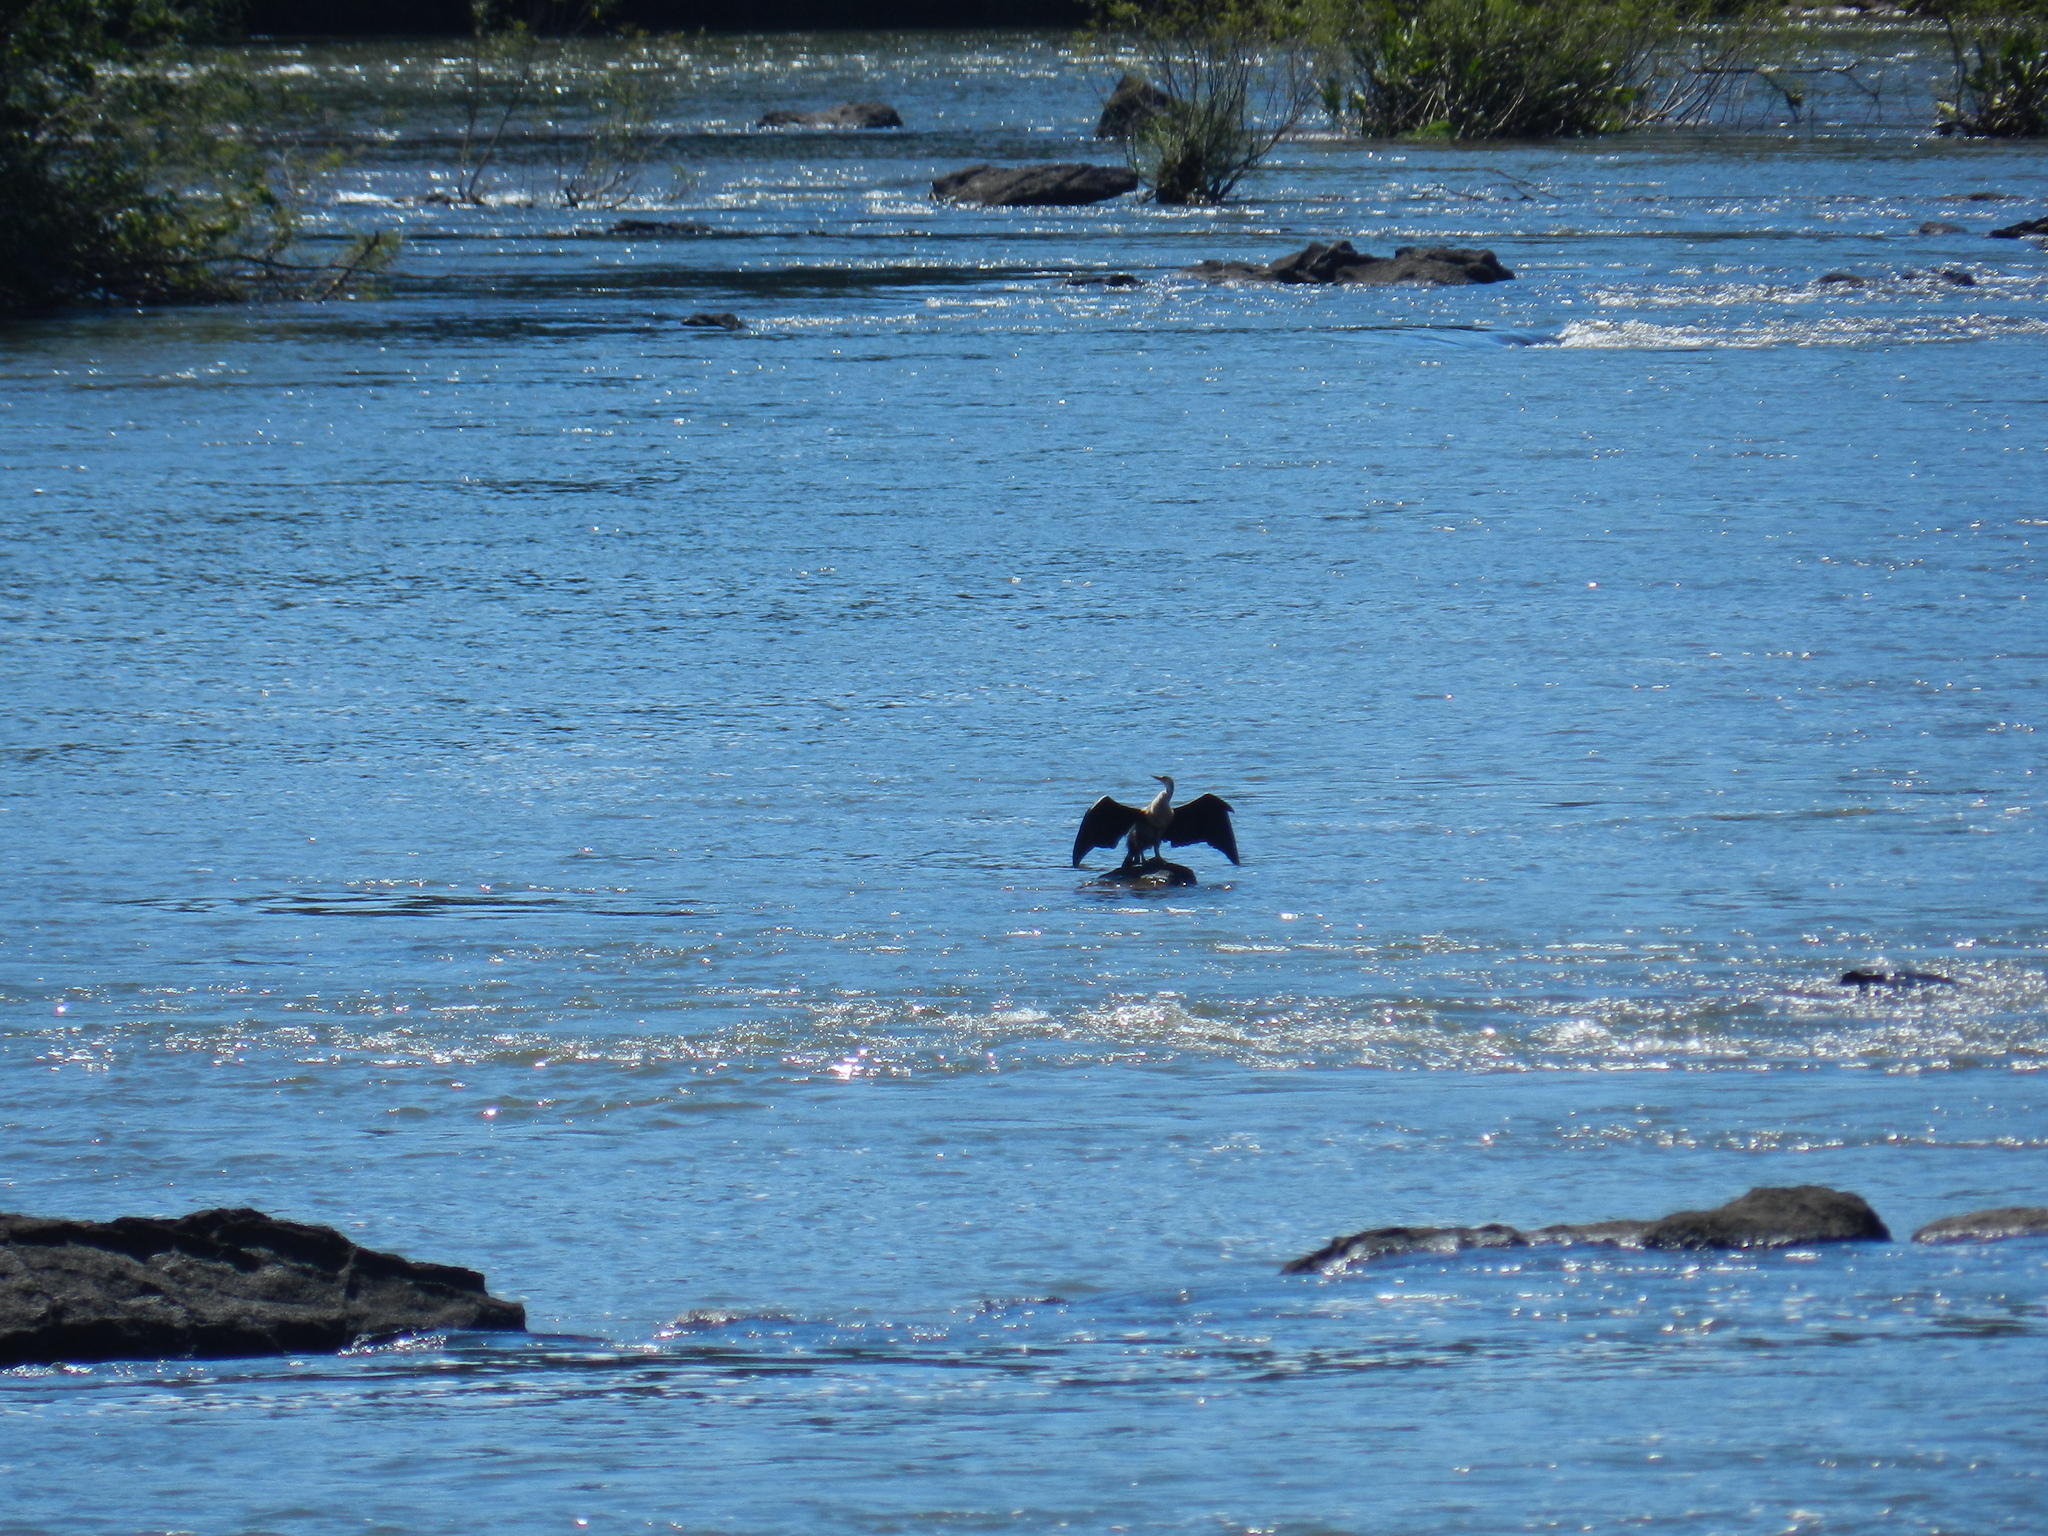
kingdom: Animalia
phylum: Chordata
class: Aves
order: Suliformes
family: Anhingidae
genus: Anhinga
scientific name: Anhinga anhinga
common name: Anhinga
